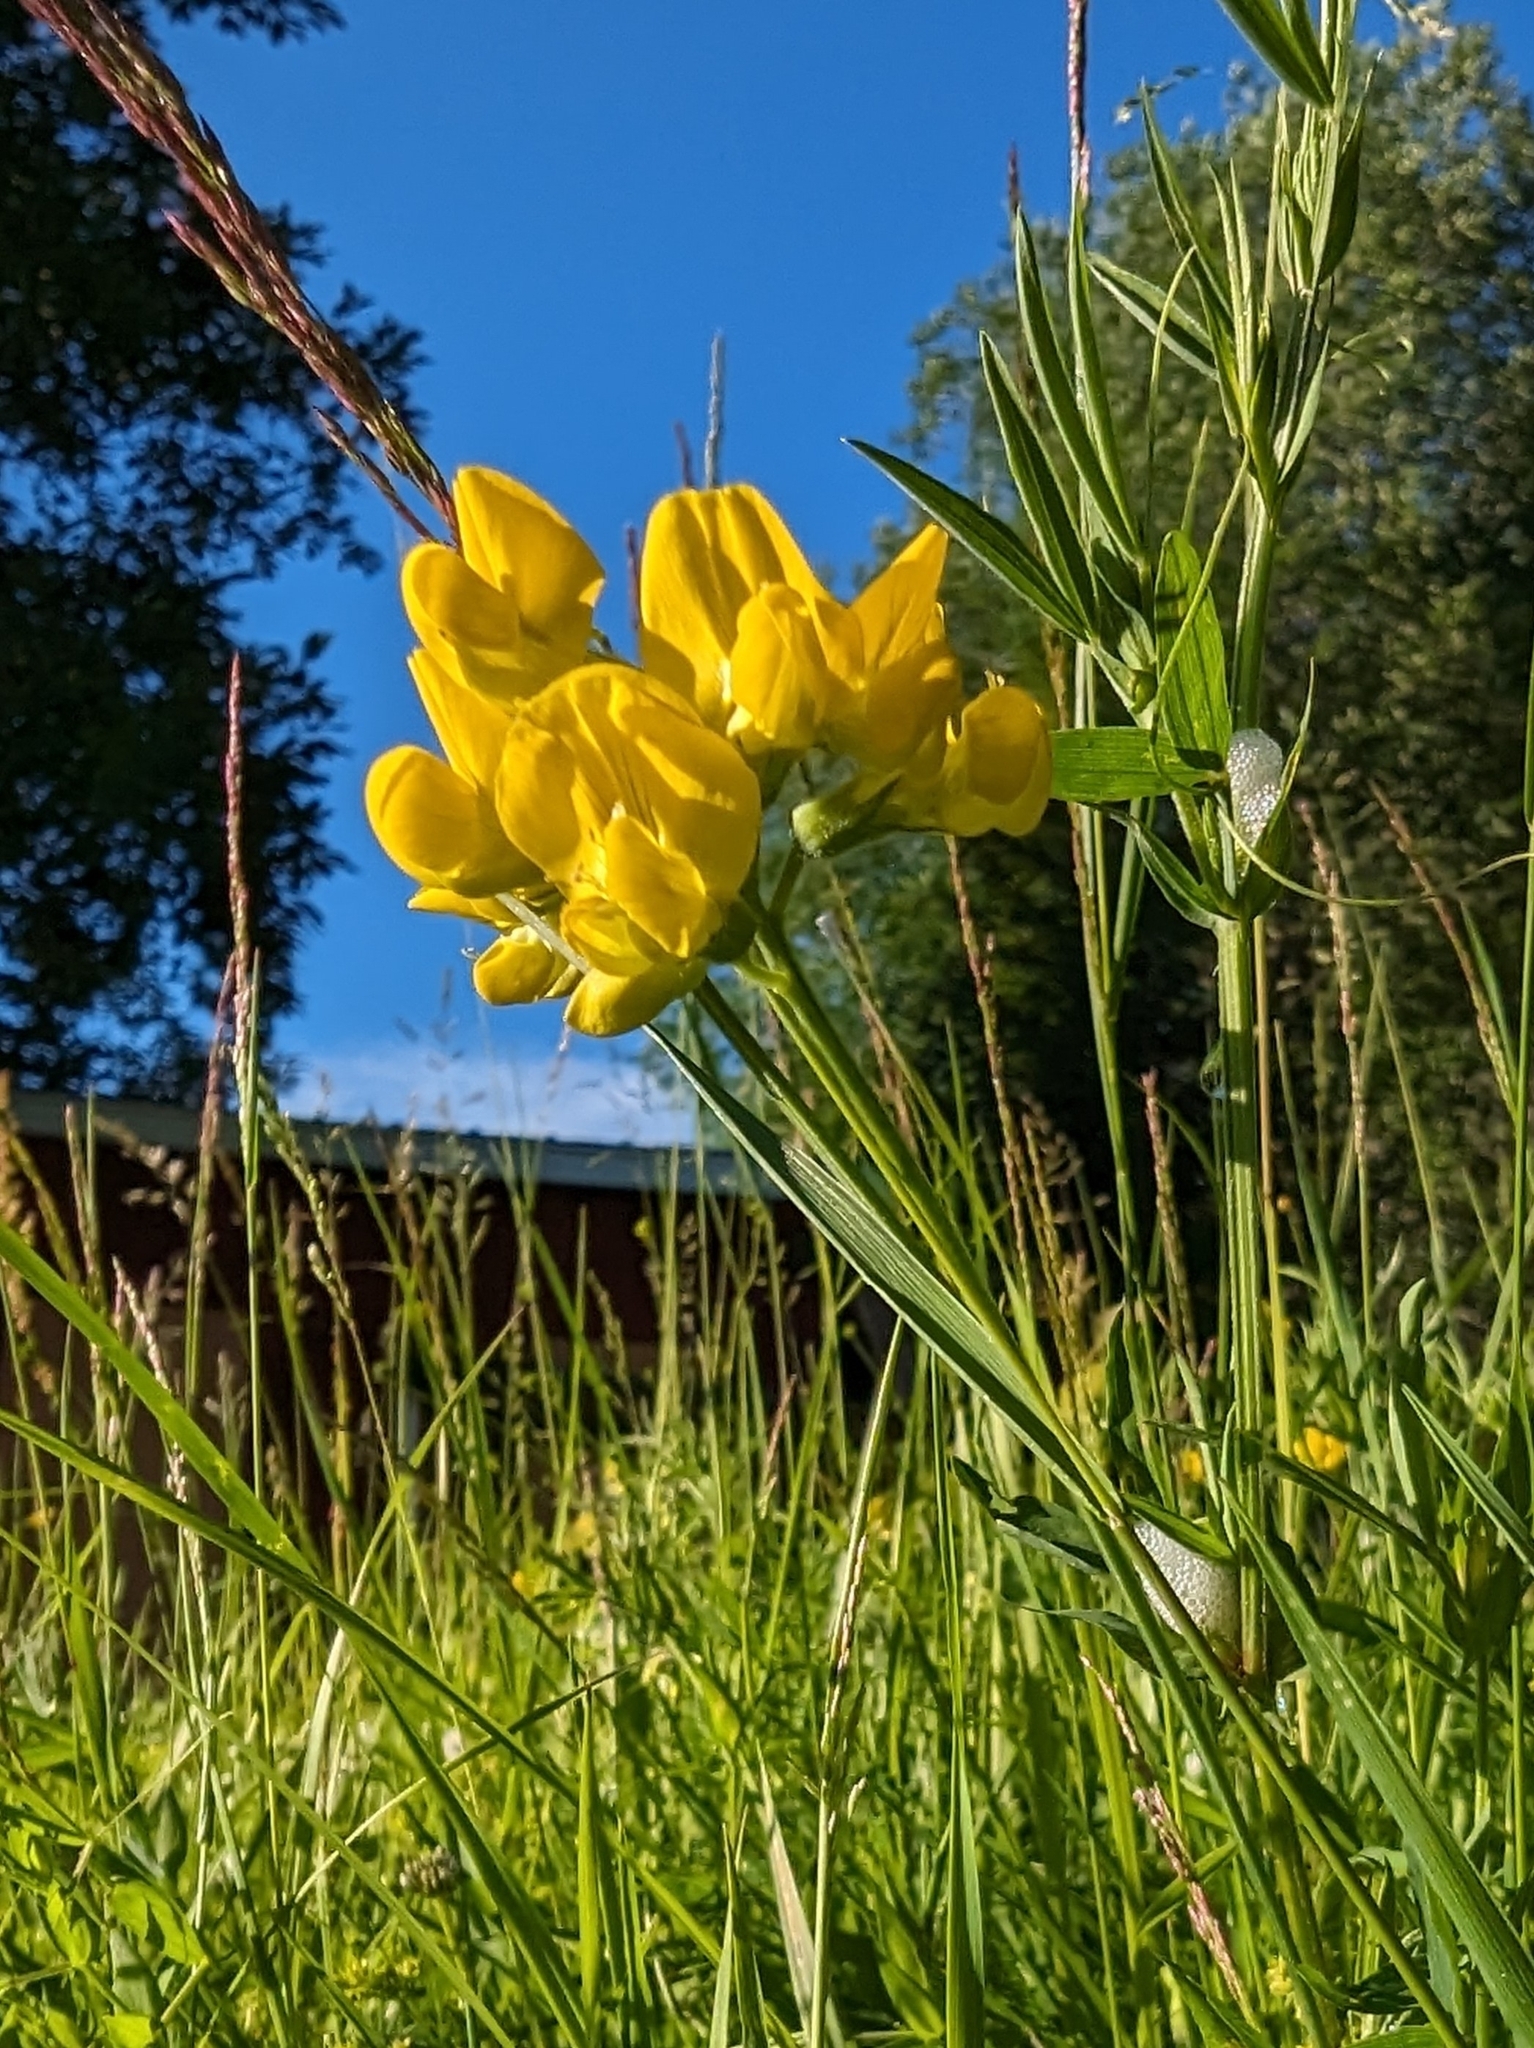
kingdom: Plantae
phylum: Tracheophyta
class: Magnoliopsida
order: Fabales
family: Fabaceae
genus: Lathyrus
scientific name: Lathyrus pratensis
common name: Meadow vetchling
